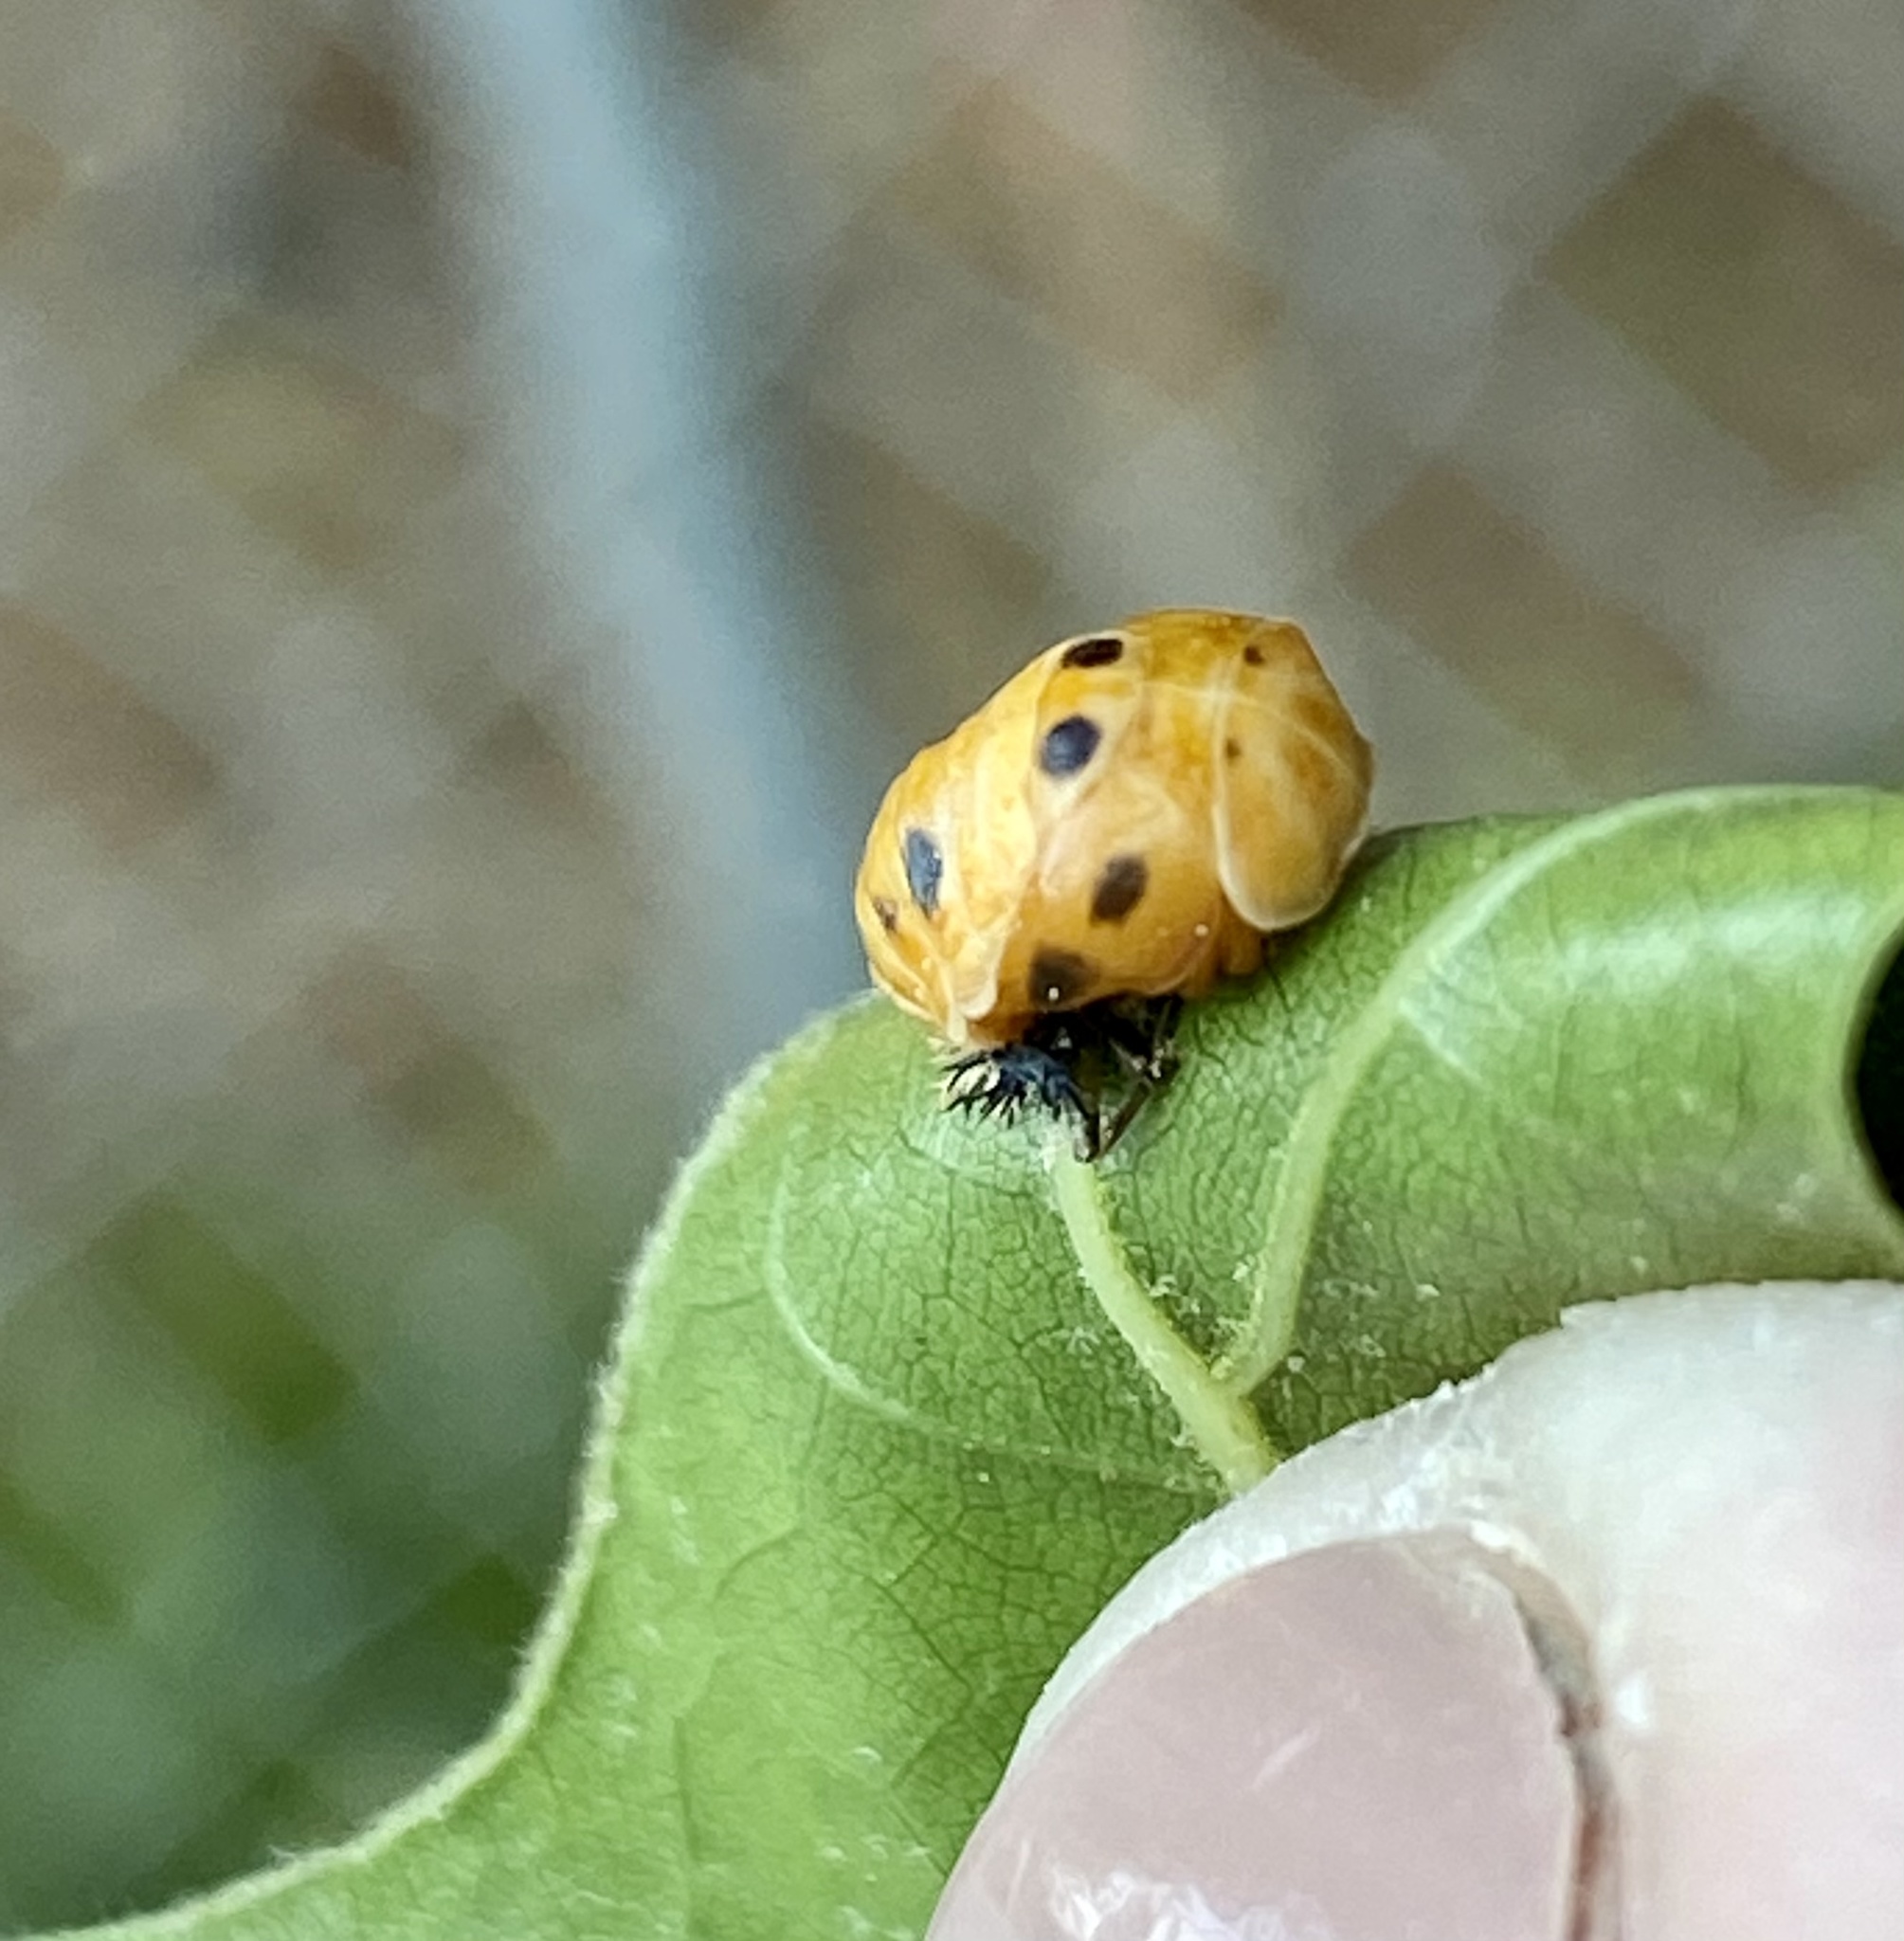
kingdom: Animalia
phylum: Arthropoda
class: Insecta
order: Coleoptera
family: Coccinellidae
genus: Harmonia
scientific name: Harmonia axyridis
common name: Harlequin ladybird
